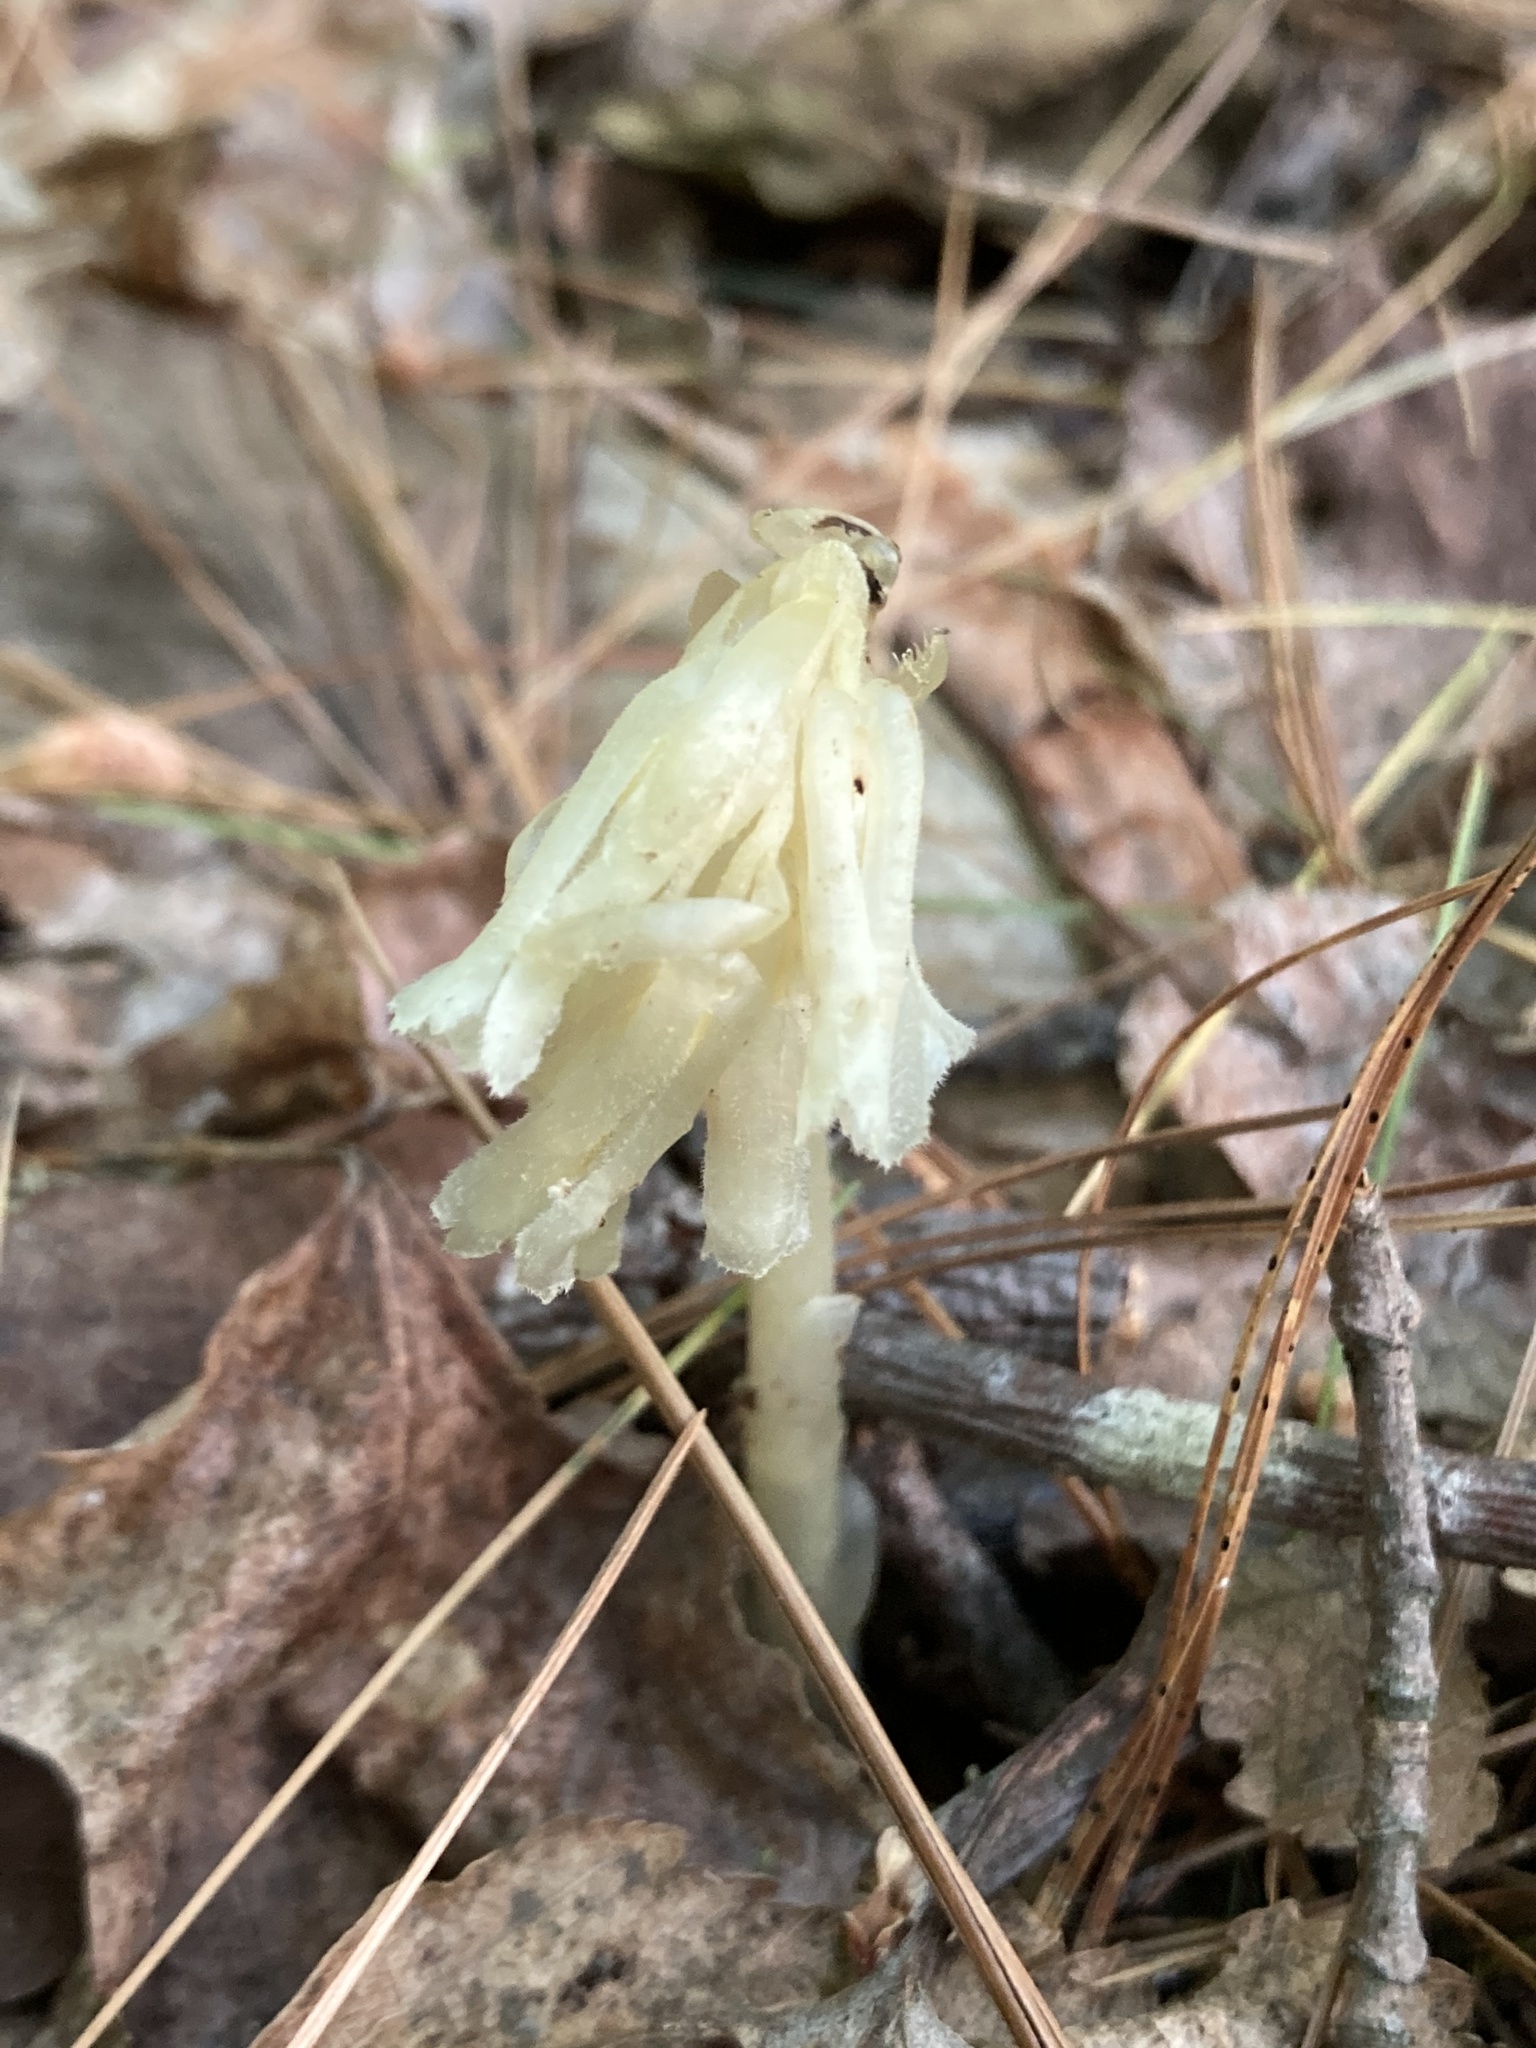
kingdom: Plantae
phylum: Tracheophyta
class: Magnoliopsida
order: Ericales
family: Ericaceae
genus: Hypopitys
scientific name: Hypopitys monotropa
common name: Yellow bird's-nest
